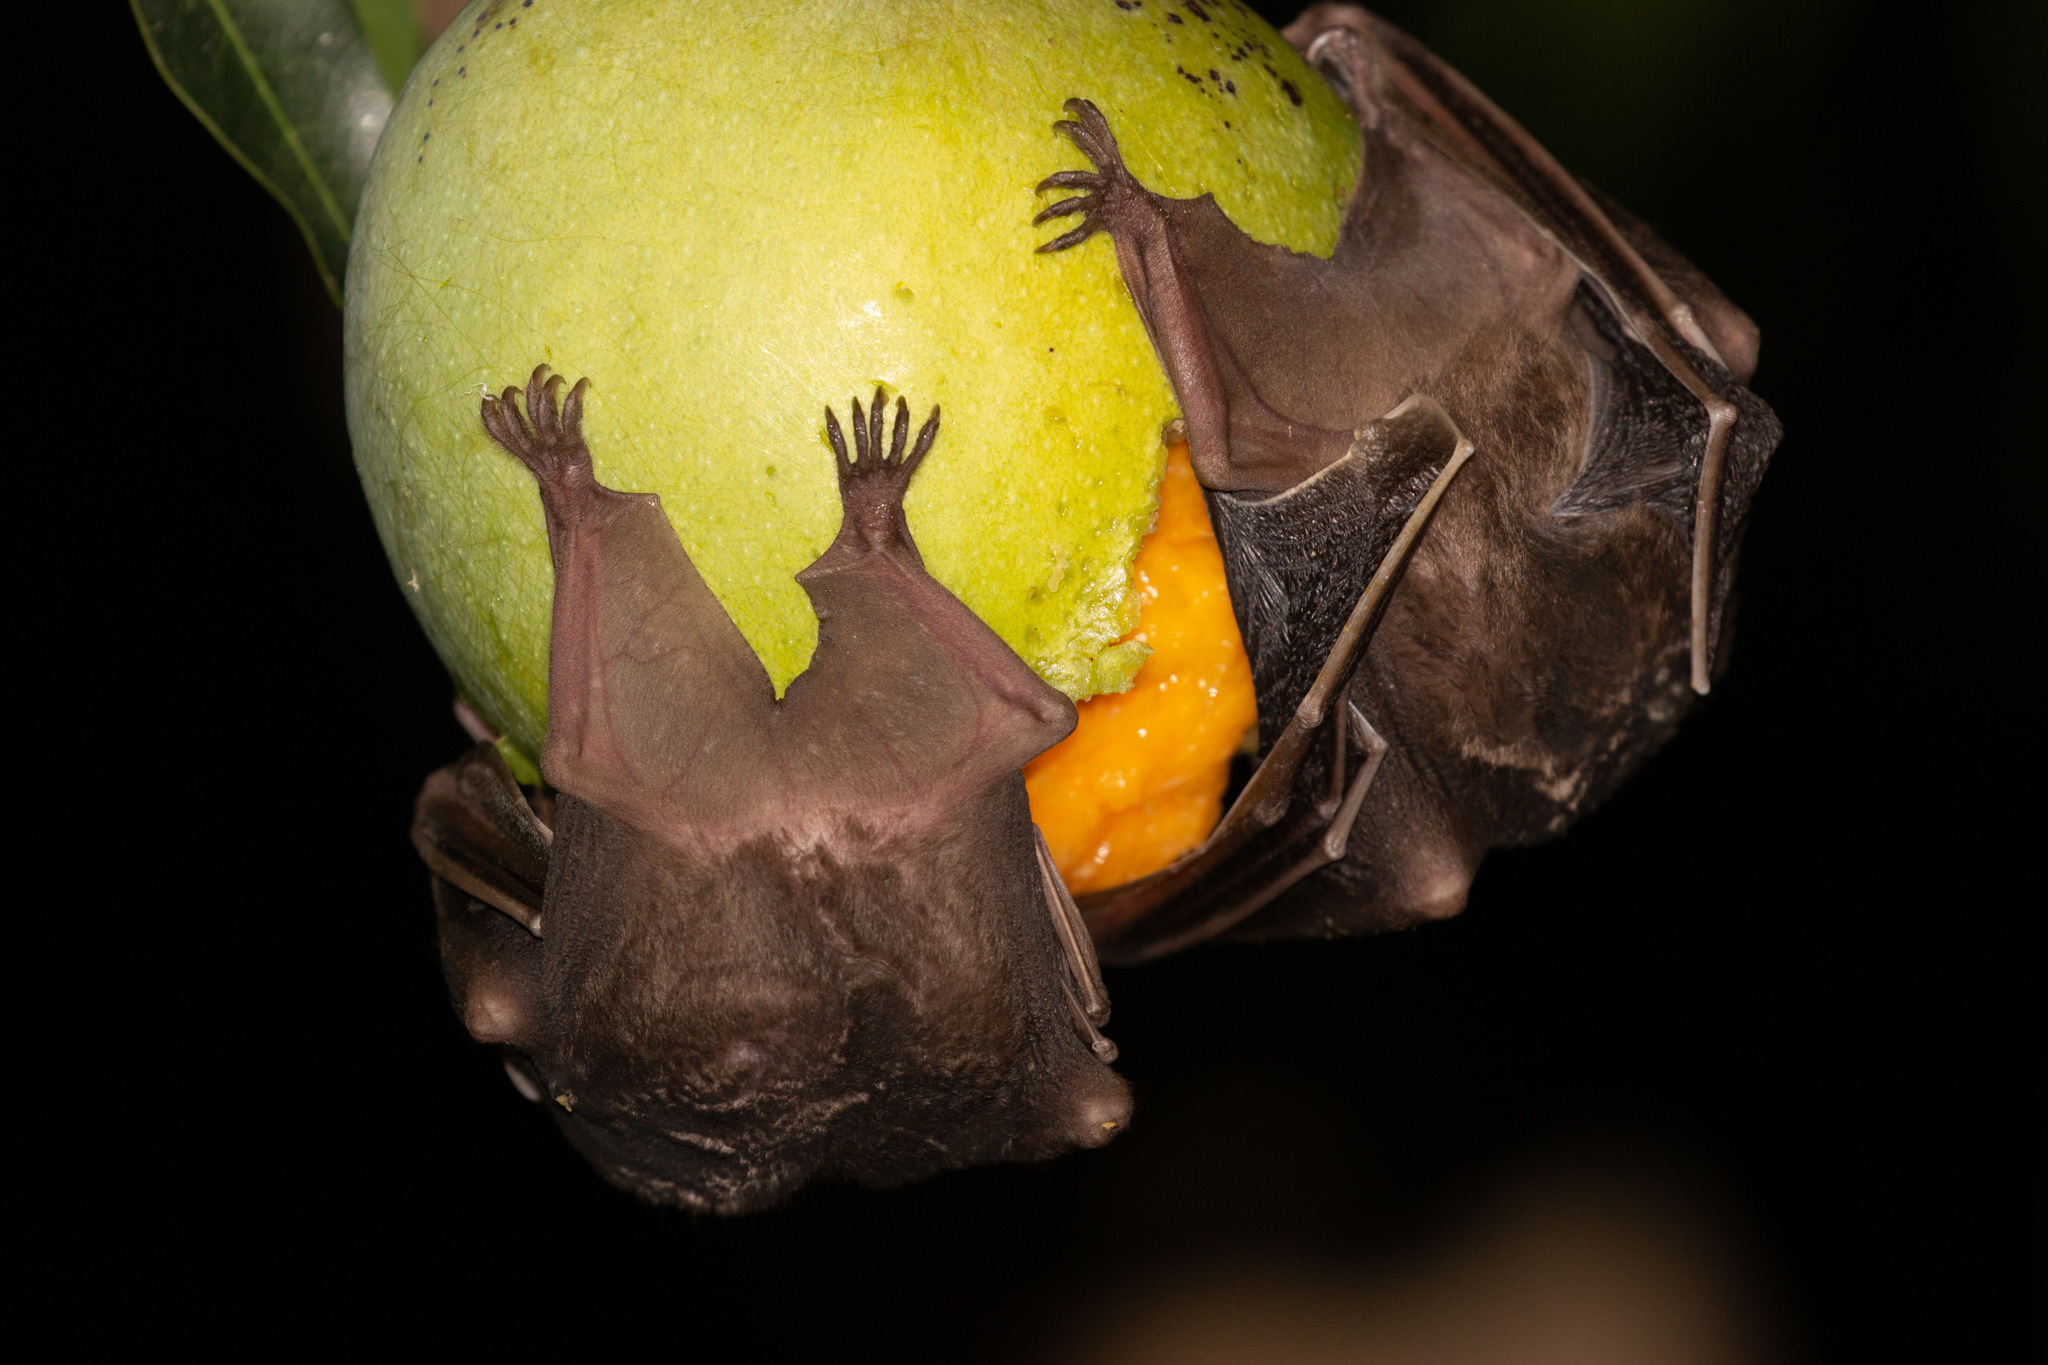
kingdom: Animalia
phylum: Chordata
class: Mammalia
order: Chiroptera
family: Phyllostomidae
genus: Artibeus
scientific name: Artibeus planirostris
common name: Flat-faced fruit-eating bat
